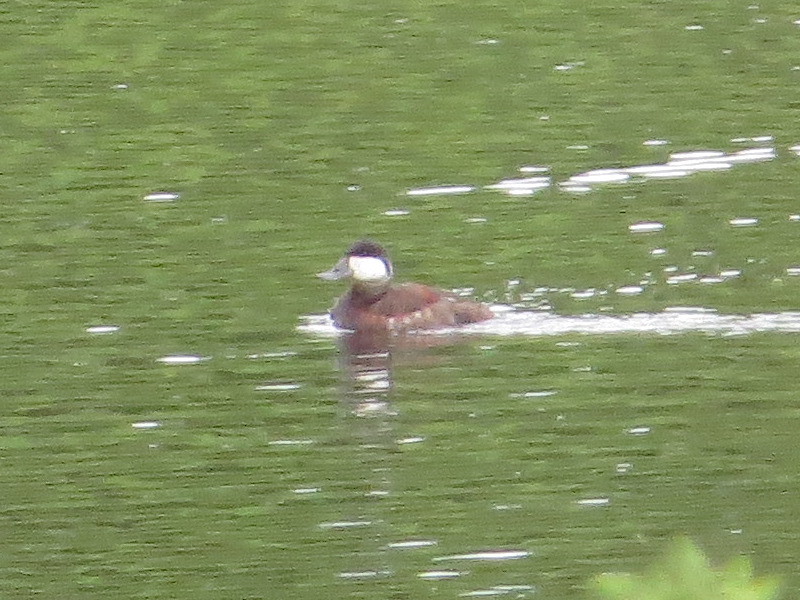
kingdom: Animalia
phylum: Chordata
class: Aves
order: Anseriformes
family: Anatidae
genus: Oxyura
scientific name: Oxyura jamaicensis
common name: Ruddy duck
